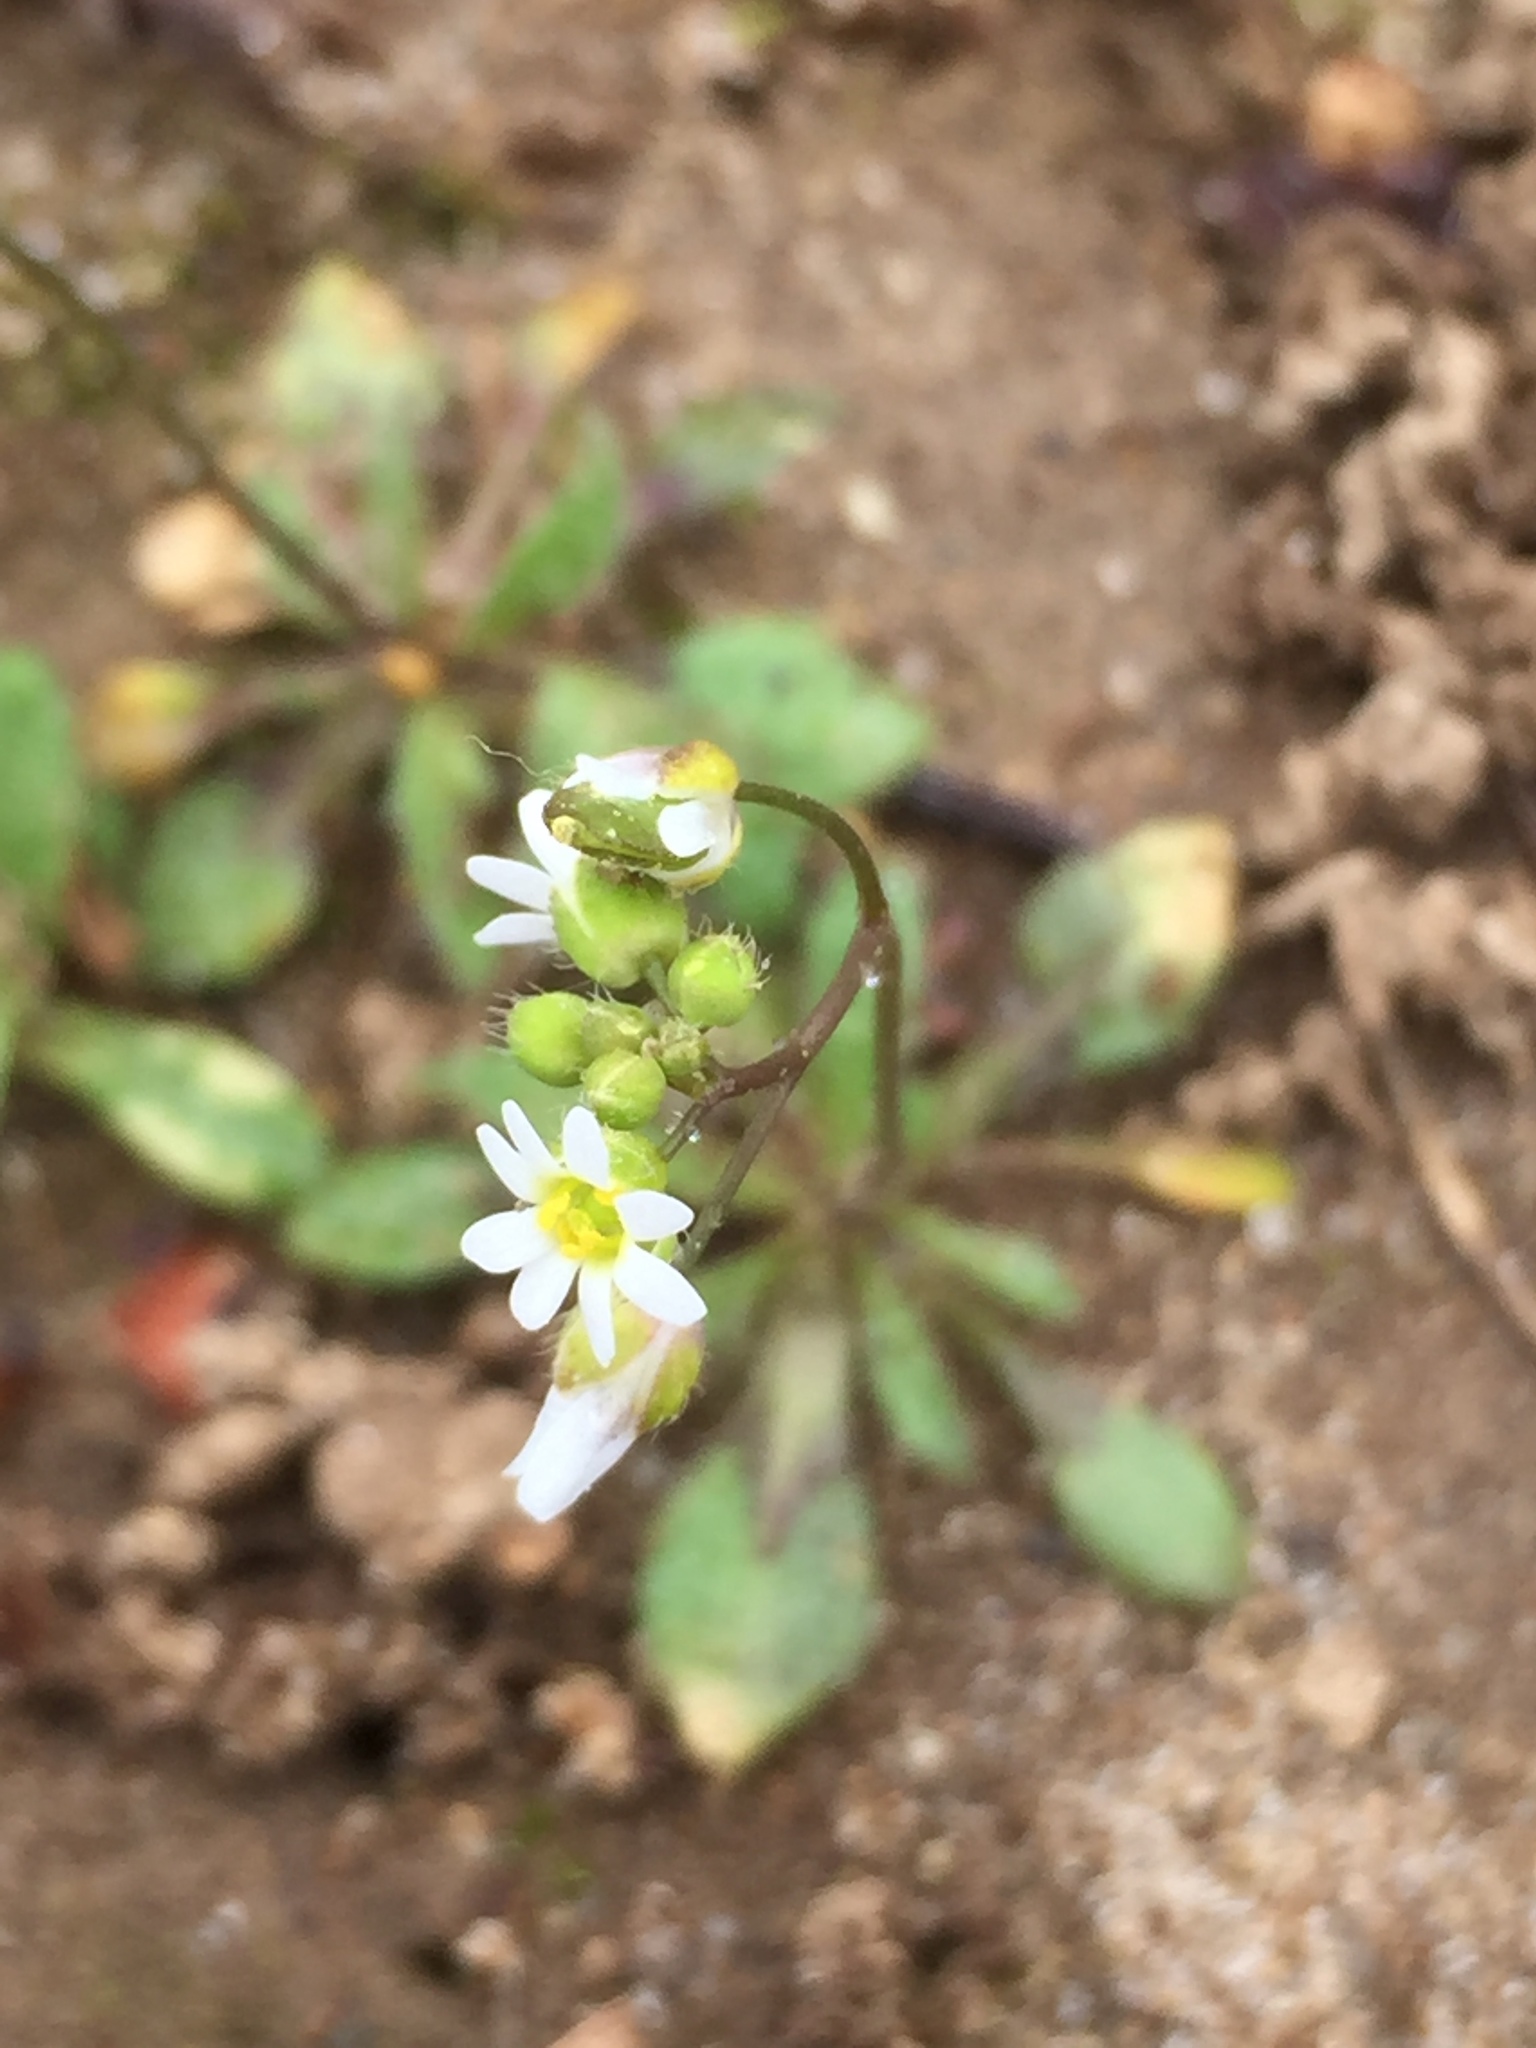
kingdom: Plantae
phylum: Tracheophyta
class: Magnoliopsida
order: Brassicales
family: Brassicaceae
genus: Draba
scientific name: Draba verna
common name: Spring draba
